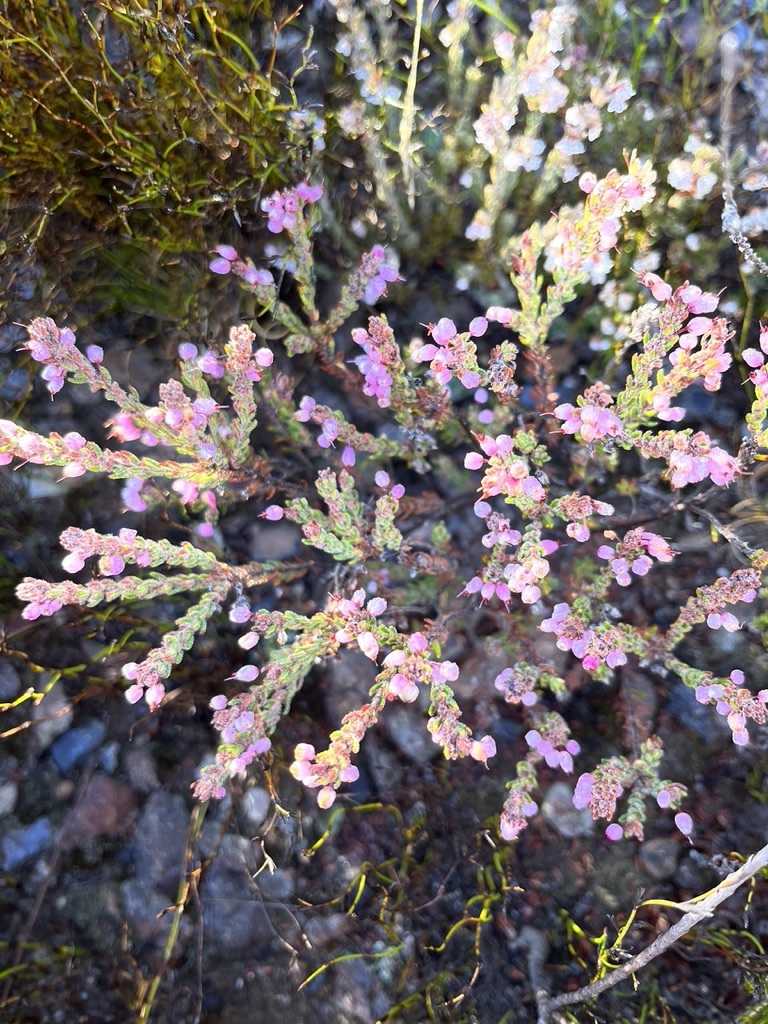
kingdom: Plantae
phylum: Tracheophyta
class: Magnoliopsida
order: Ericales
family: Ericaceae
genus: Erica
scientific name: Erica nudiflora
